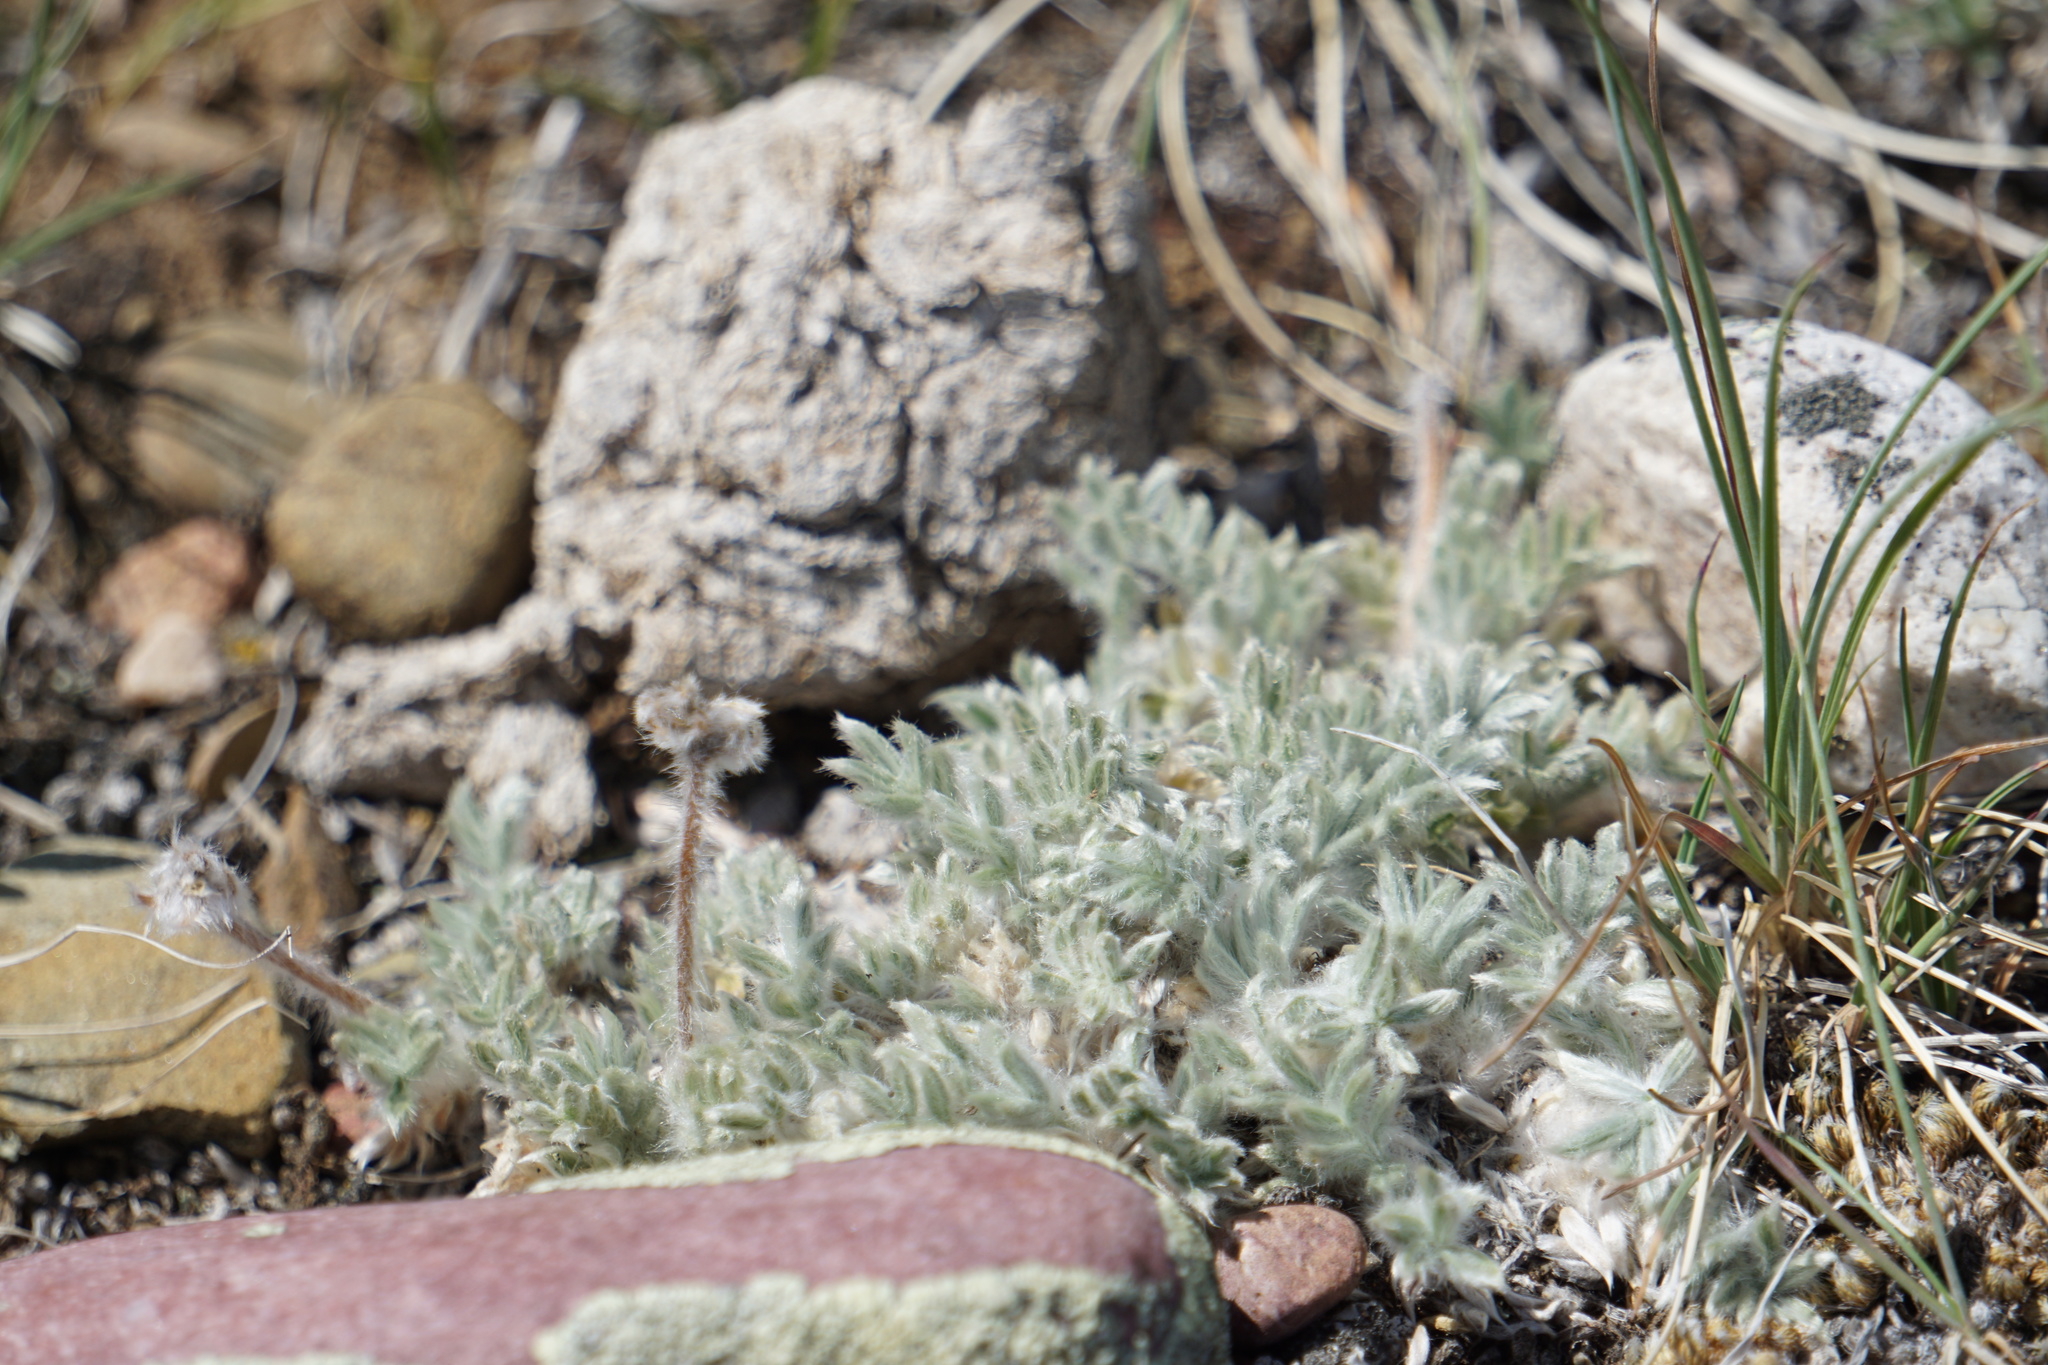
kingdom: Plantae
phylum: Tracheophyta
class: Magnoliopsida
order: Fabales
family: Fabaceae
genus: Oxytropis
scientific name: Oxytropis lagopus
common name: Hare's-foot locoweed
